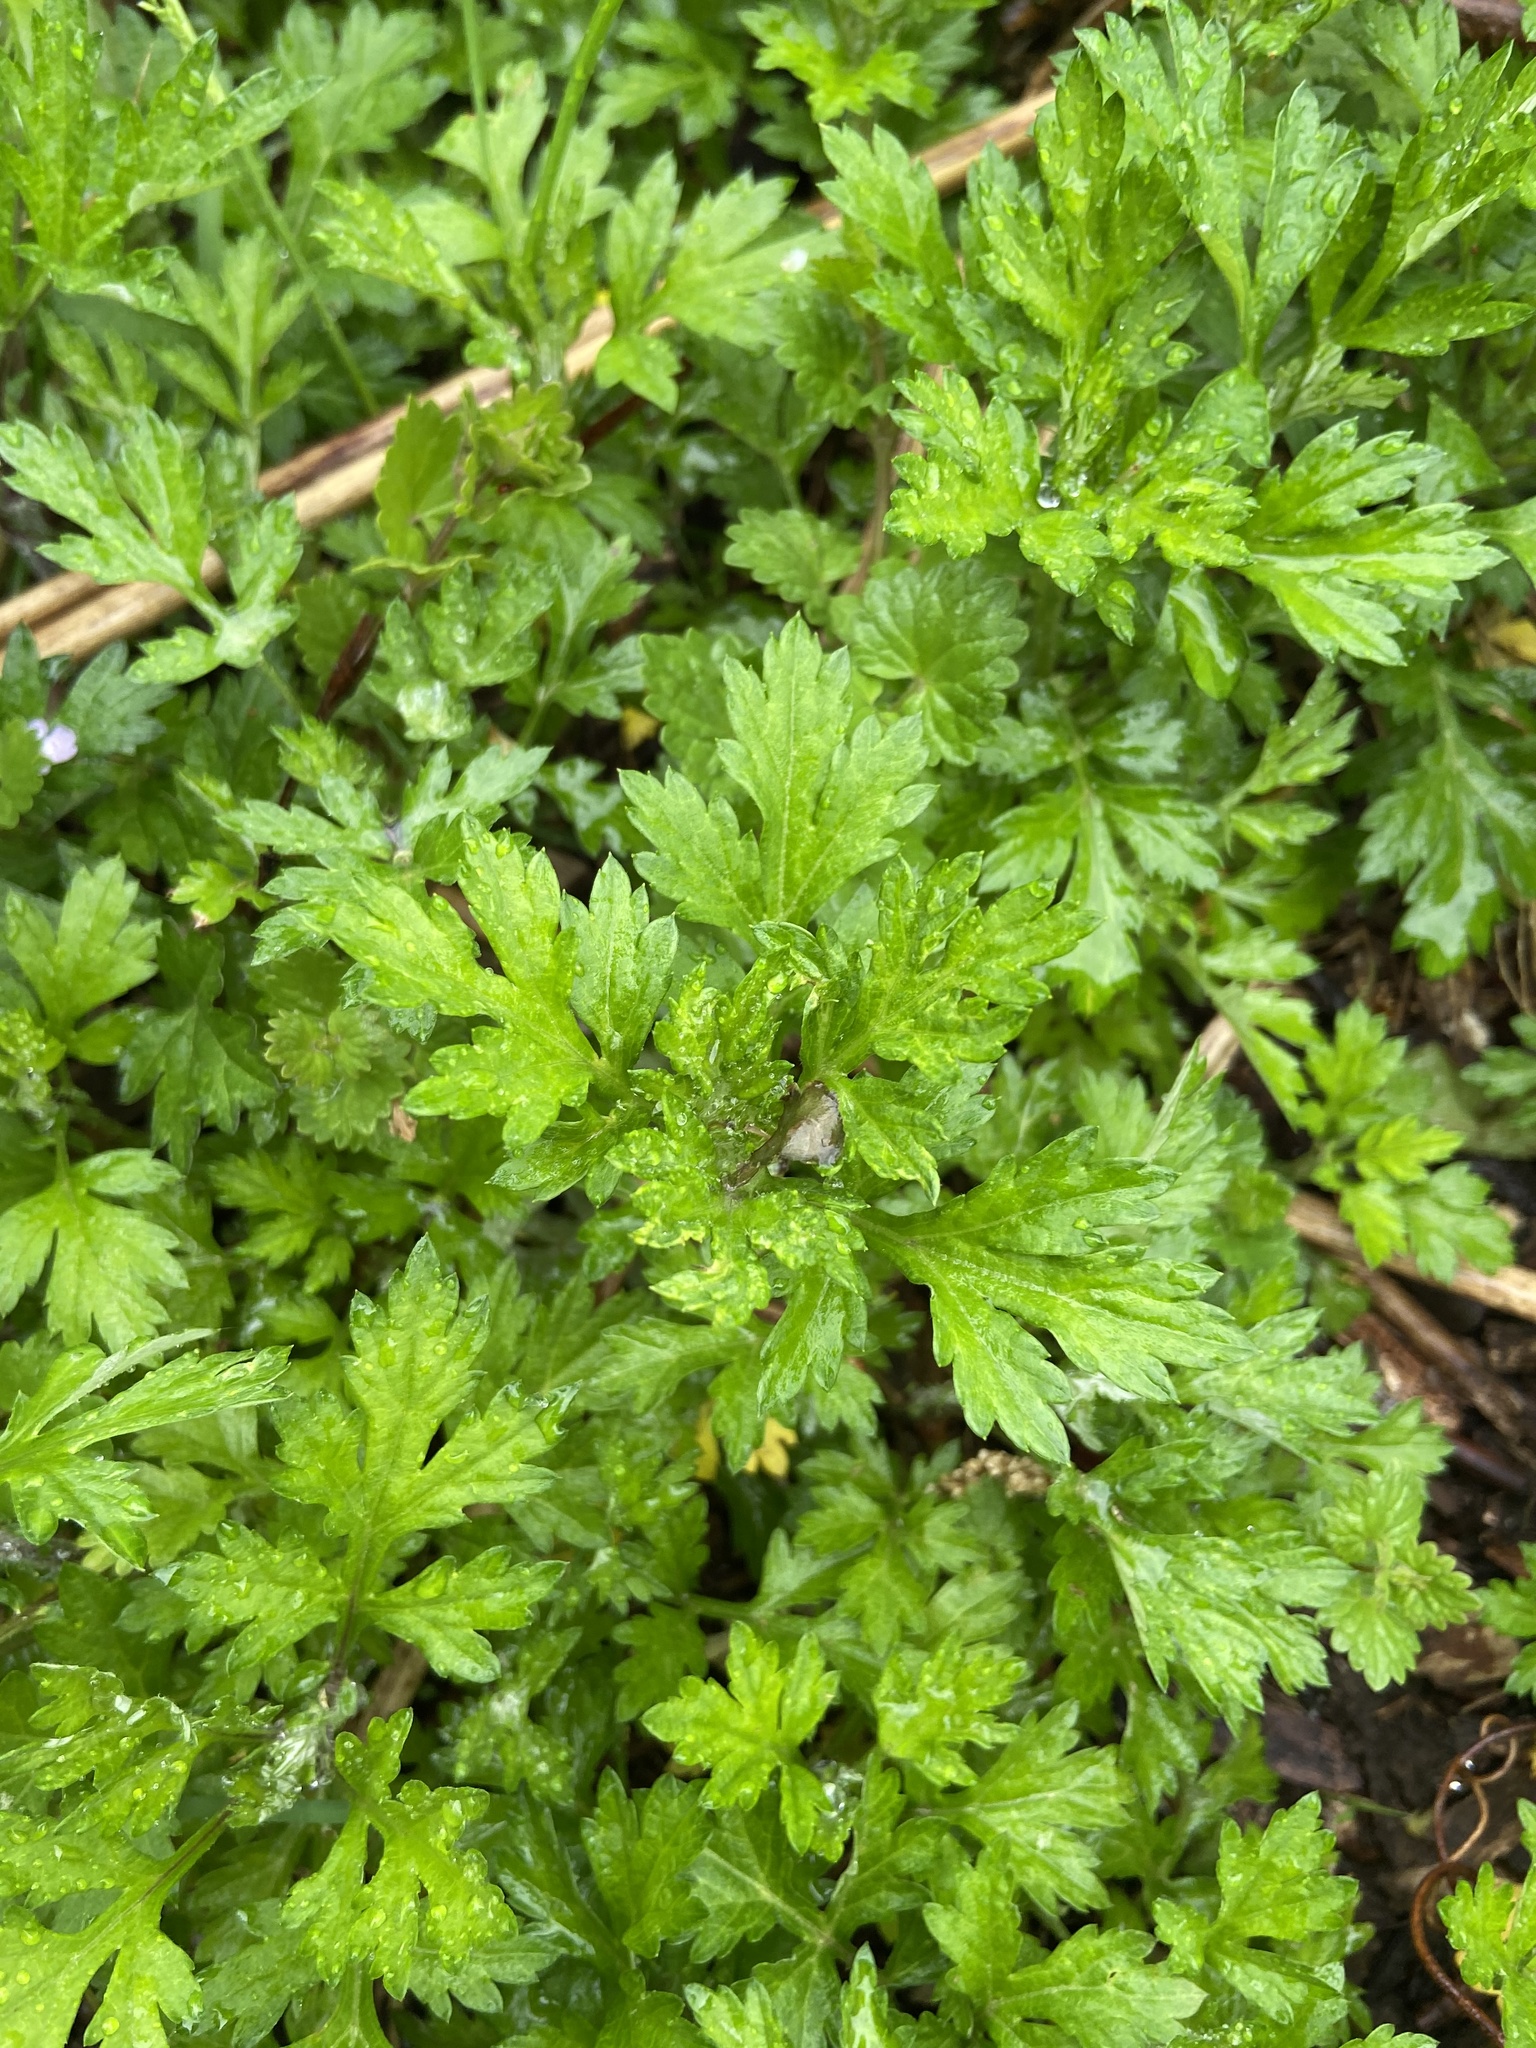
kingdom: Plantae
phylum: Tracheophyta
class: Magnoliopsida
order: Asterales
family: Asteraceae
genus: Artemisia
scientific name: Artemisia vulgaris
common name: Mugwort
